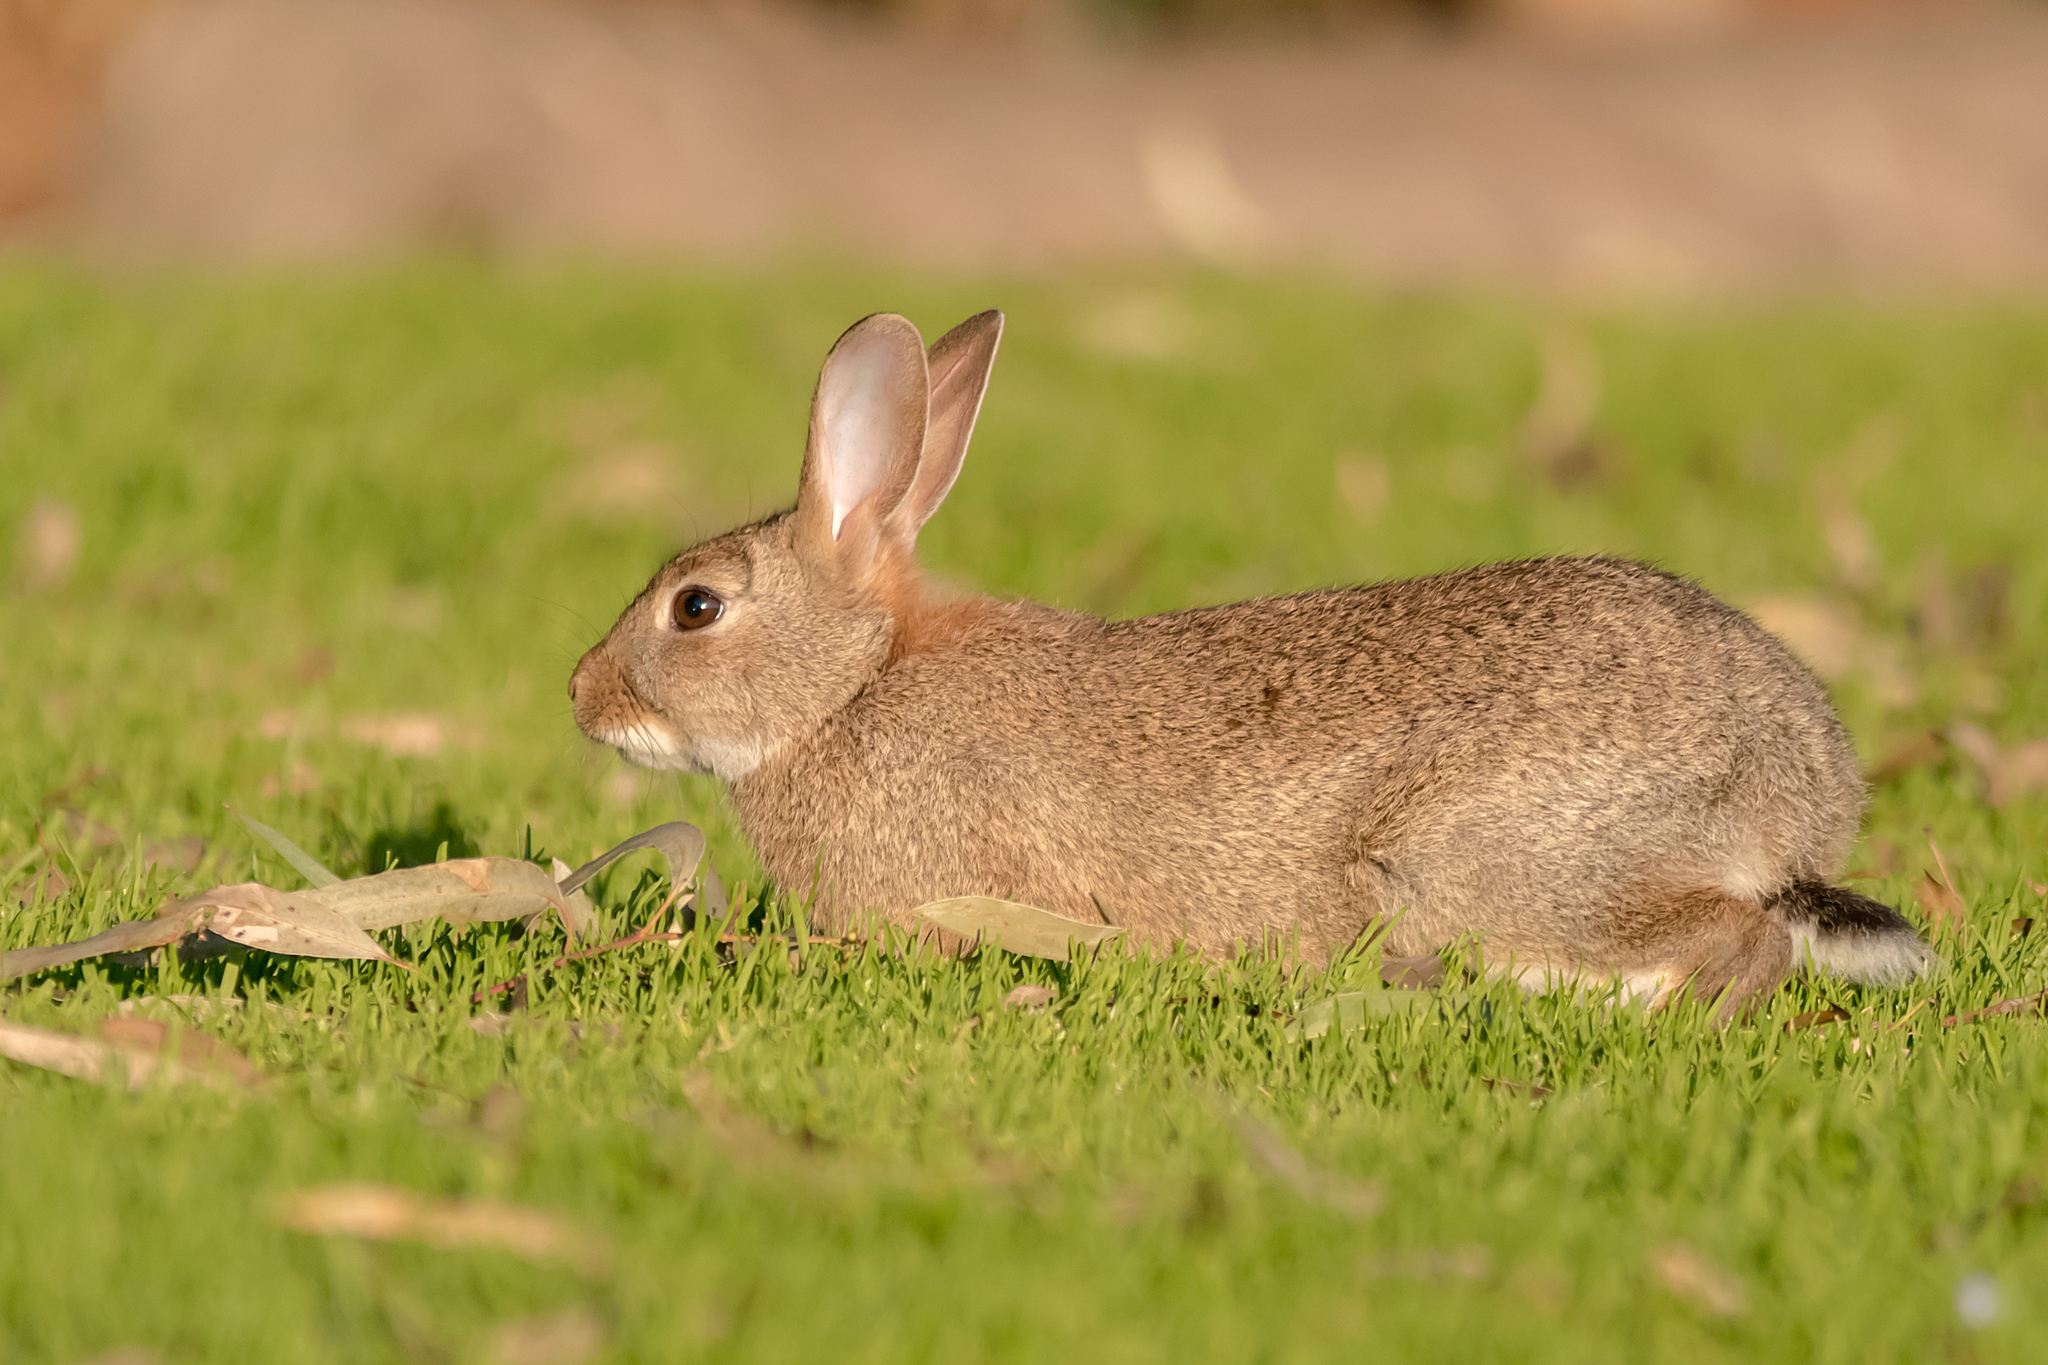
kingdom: Animalia
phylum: Chordata
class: Mammalia
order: Lagomorpha
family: Leporidae
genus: Oryctolagus
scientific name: Oryctolagus cuniculus
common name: European rabbit
